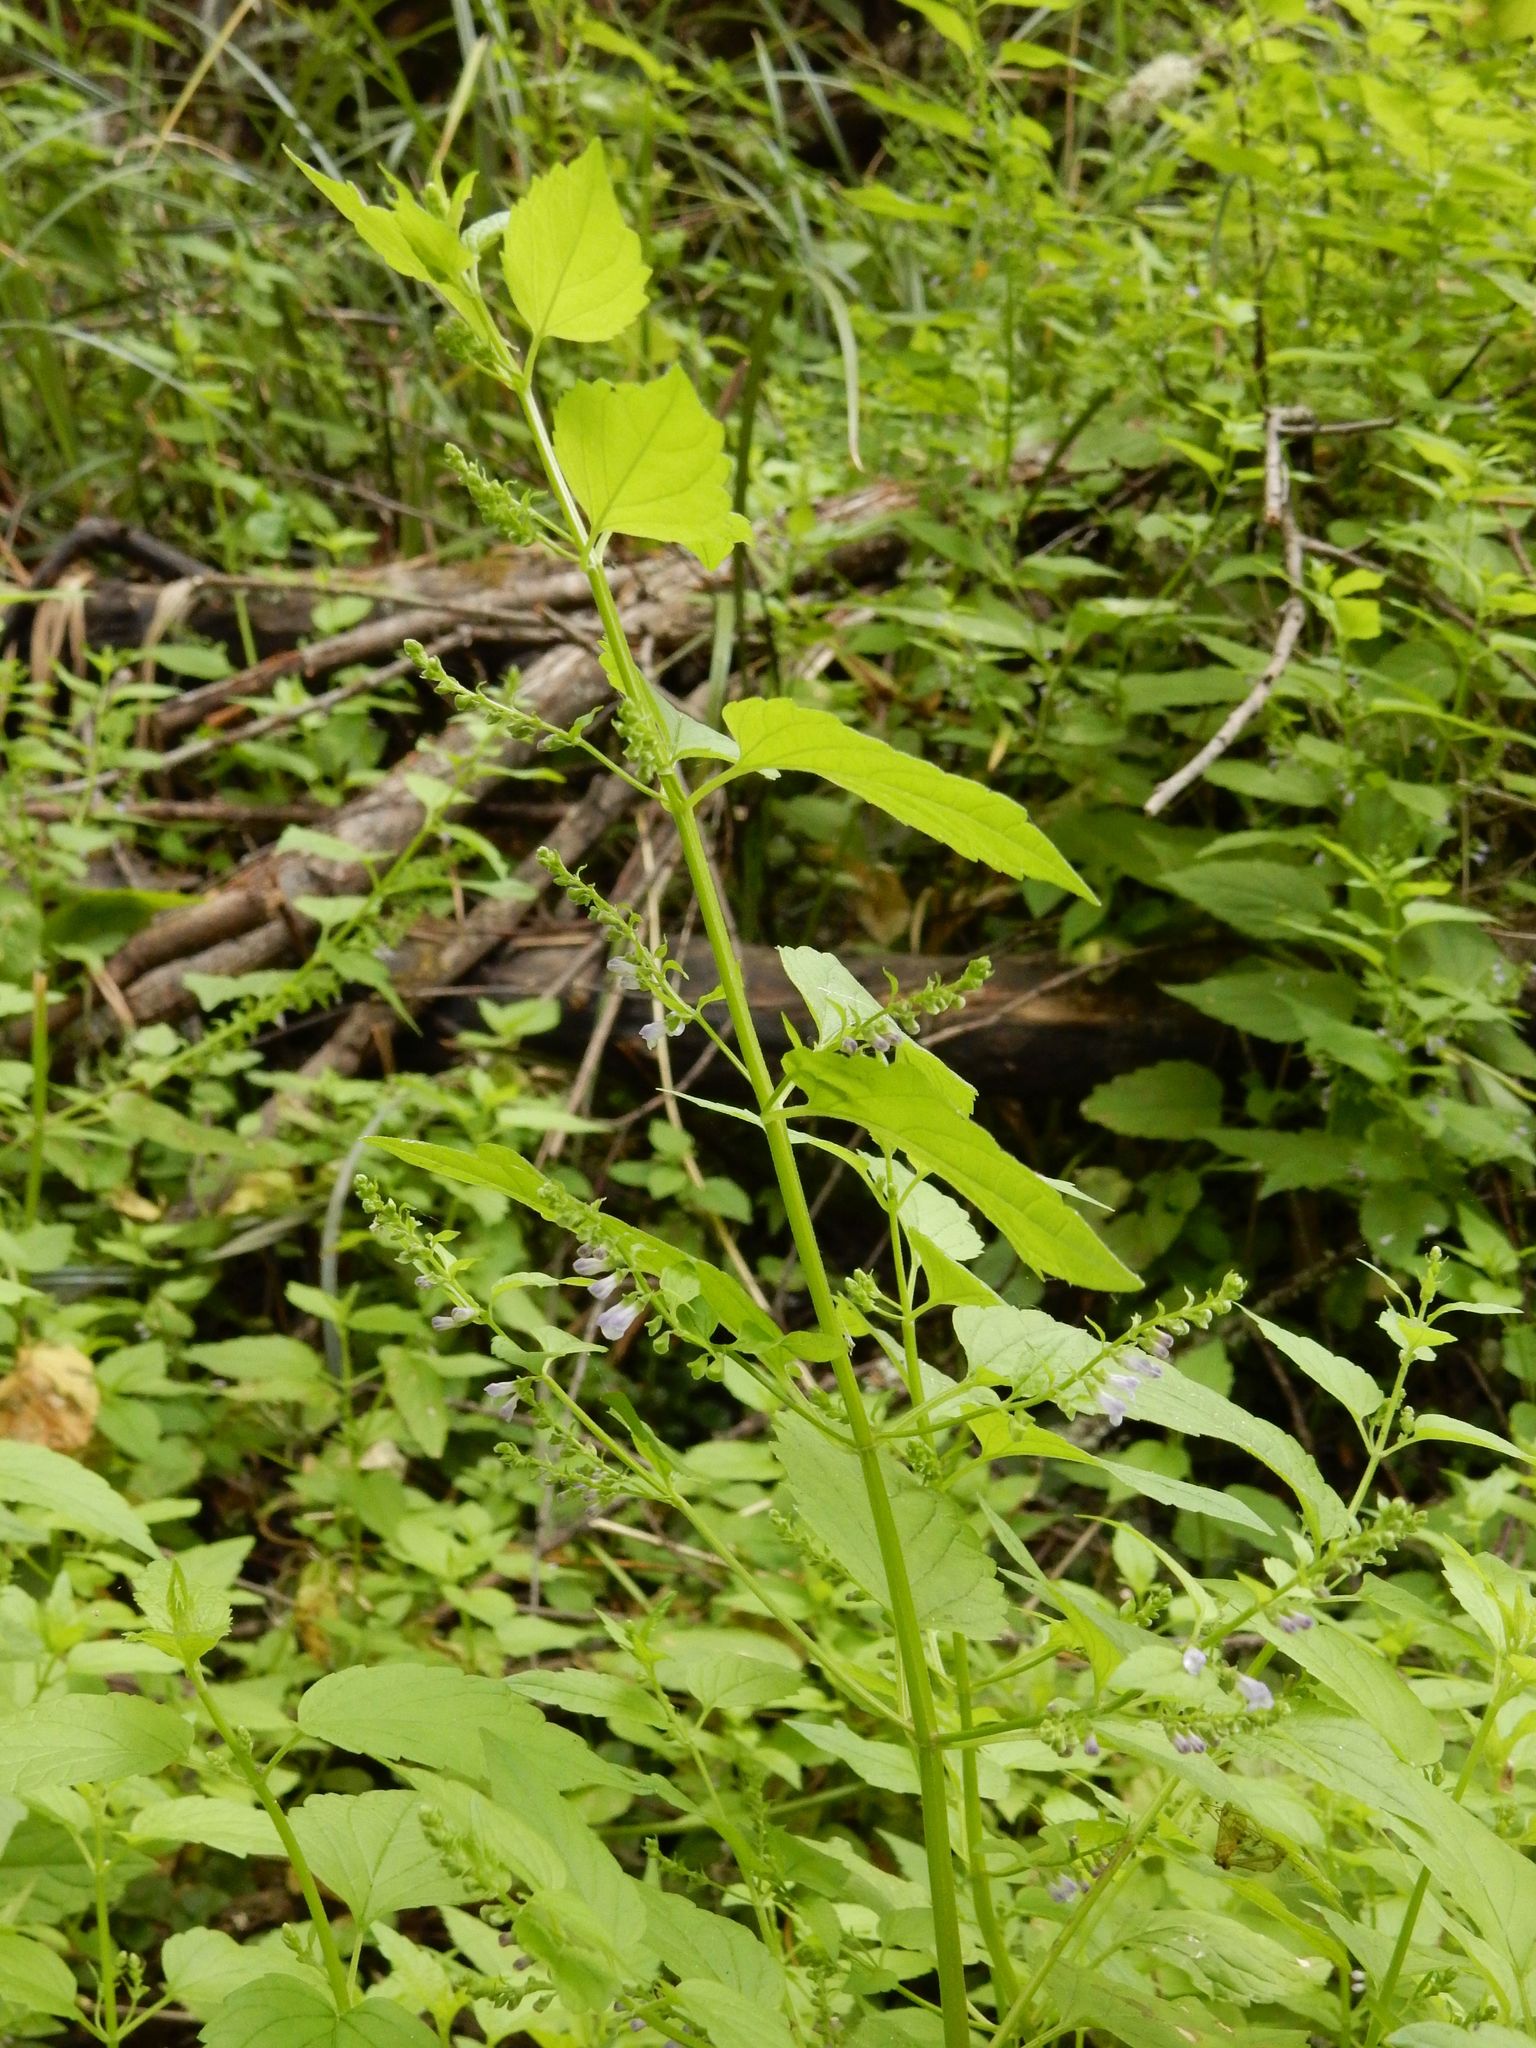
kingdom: Plantae
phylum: Tracheophyta
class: Magnoliopsida
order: Lamiales
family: Lamiaceae
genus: Scutellaria
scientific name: Scutellaria lateriflora
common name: Blue skullcap
